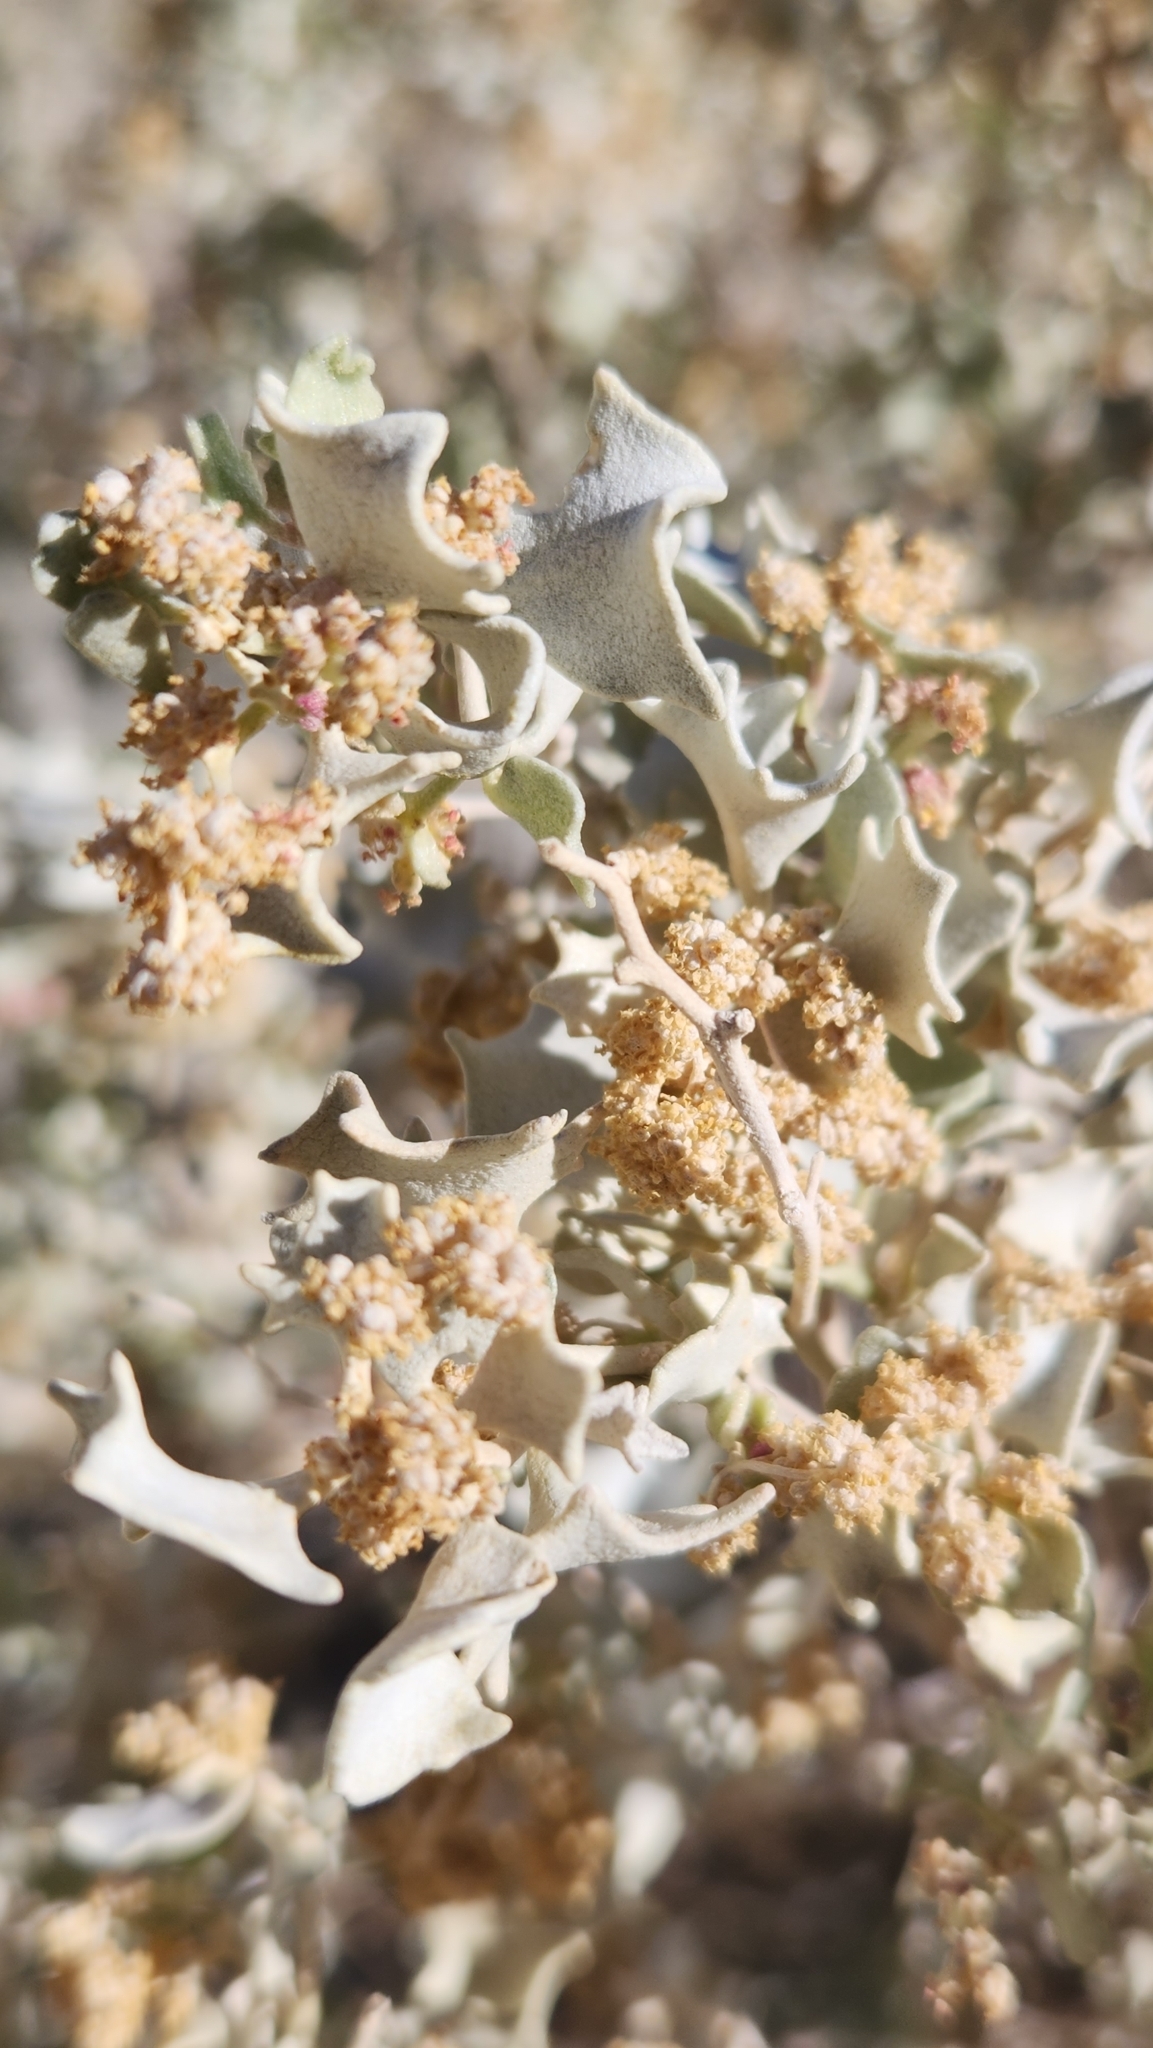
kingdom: Plantae
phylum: Tracheophyta
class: Magnoliopsida
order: Caryophyllales
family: Amaranthaceae
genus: Atriplex
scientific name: Atriplex hymenelytra
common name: Desert-holly
